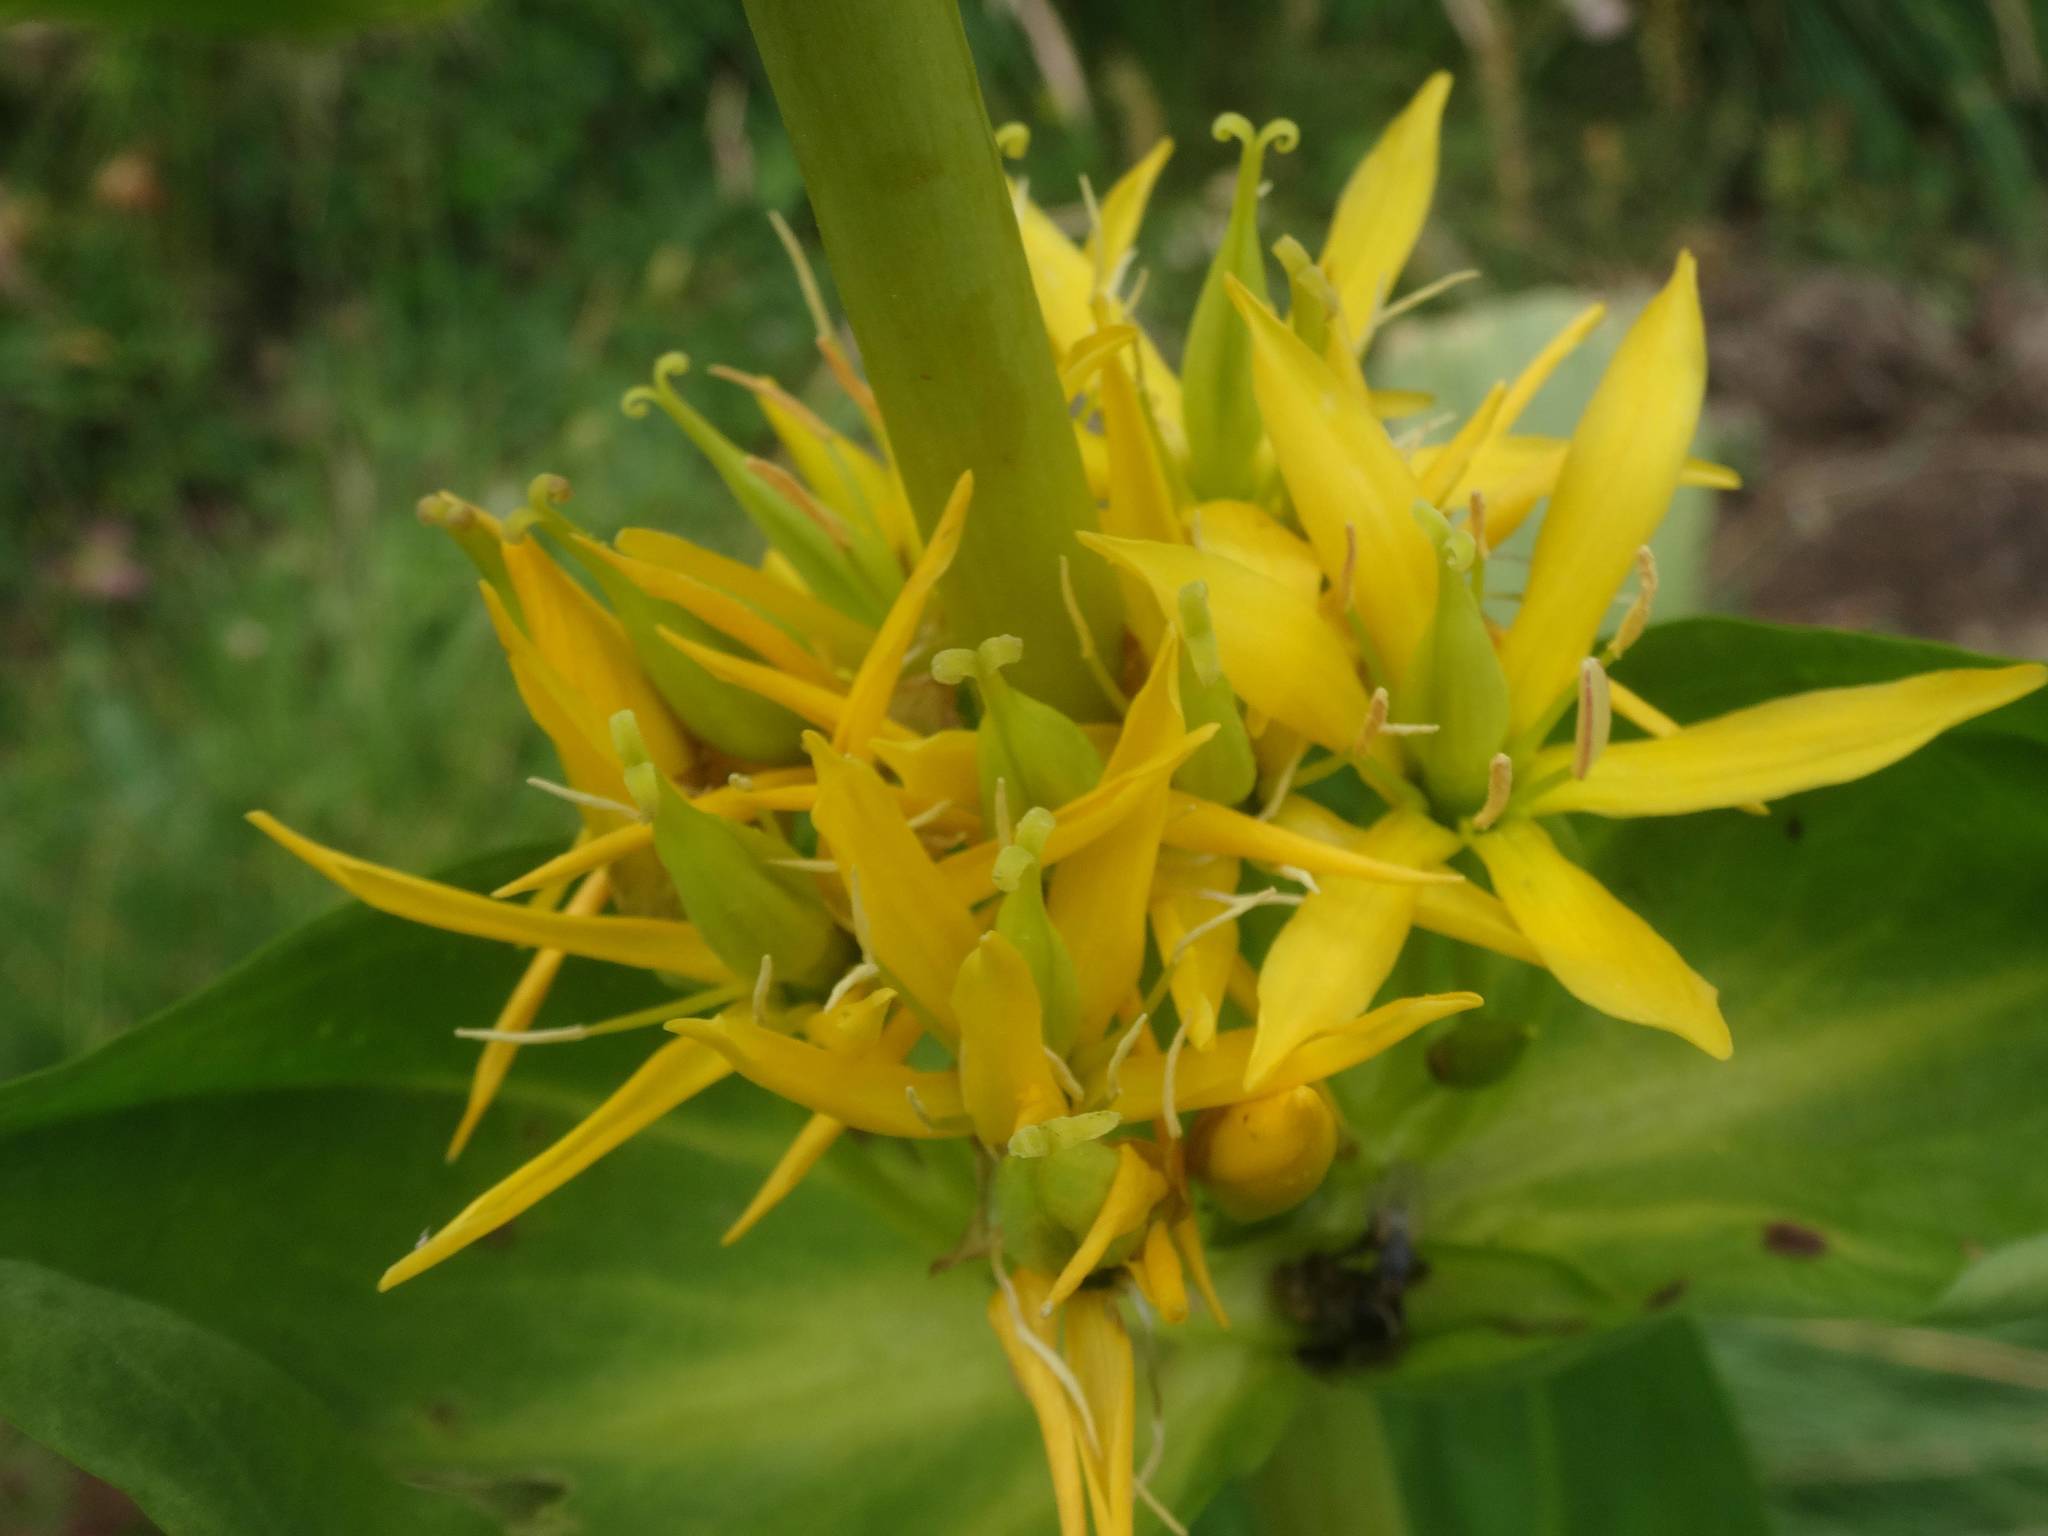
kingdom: Plantae
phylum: Tracheophyta
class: Magnoliopsida
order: Gentianales
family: Gentianaceae
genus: Gentiana
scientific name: Gentiana lutea
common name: Great yellow gentian
